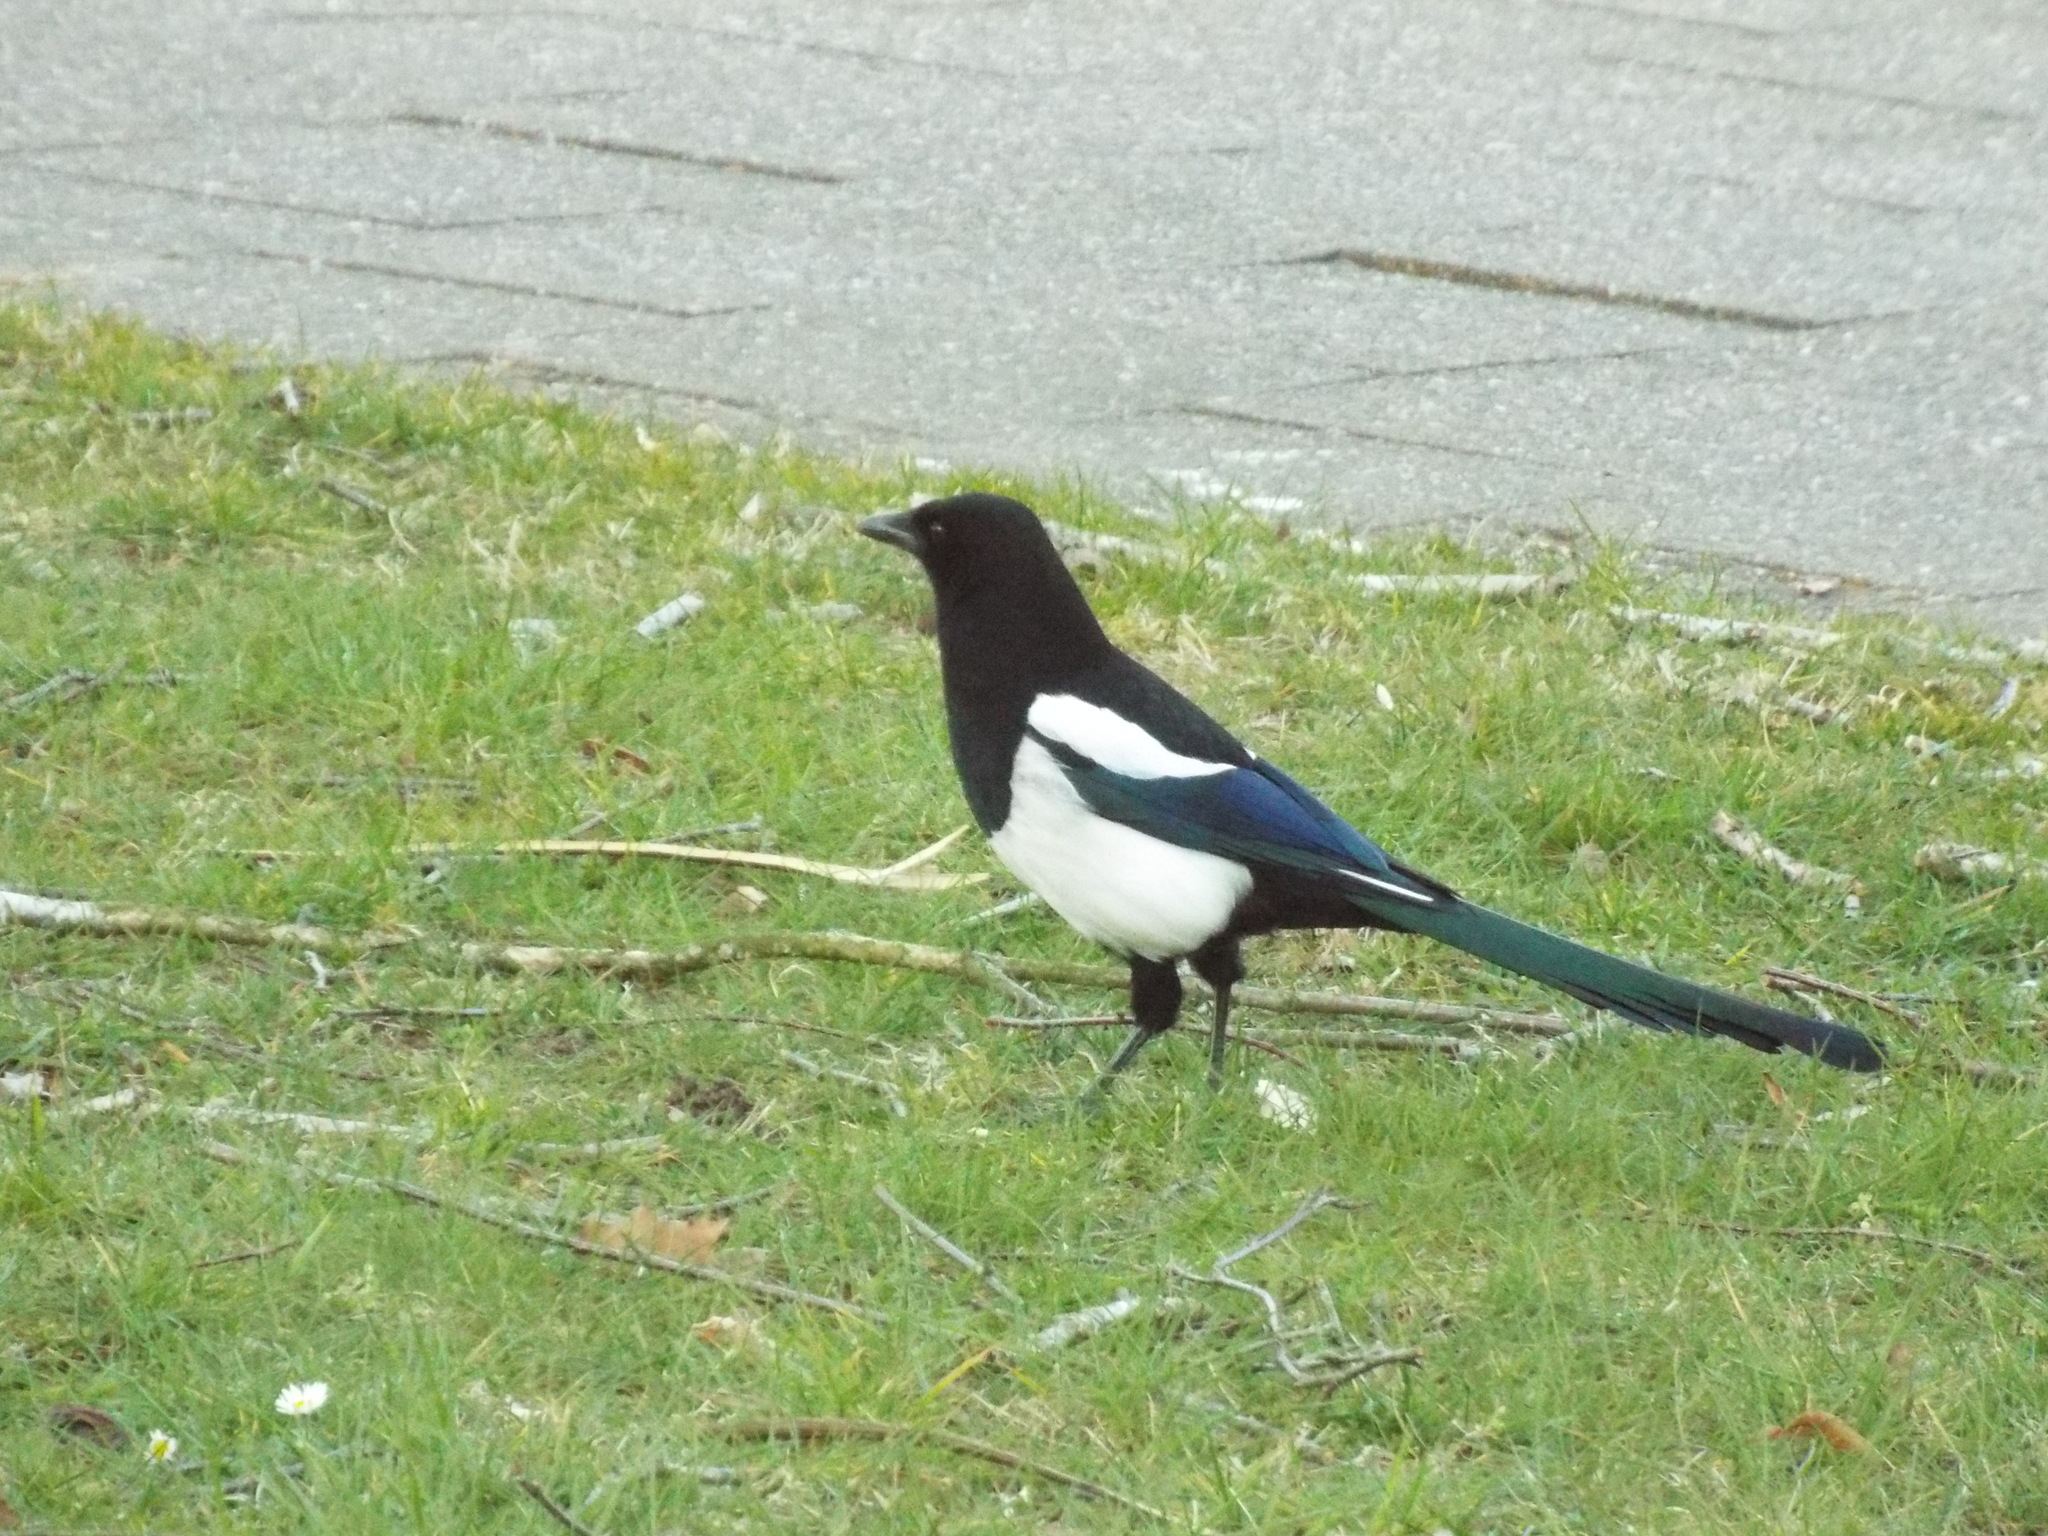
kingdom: Animalia
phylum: Chordata
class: Aves
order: Passeriformes
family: Corvidae
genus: Pica
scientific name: Pica pica
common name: Eurasian magpie
